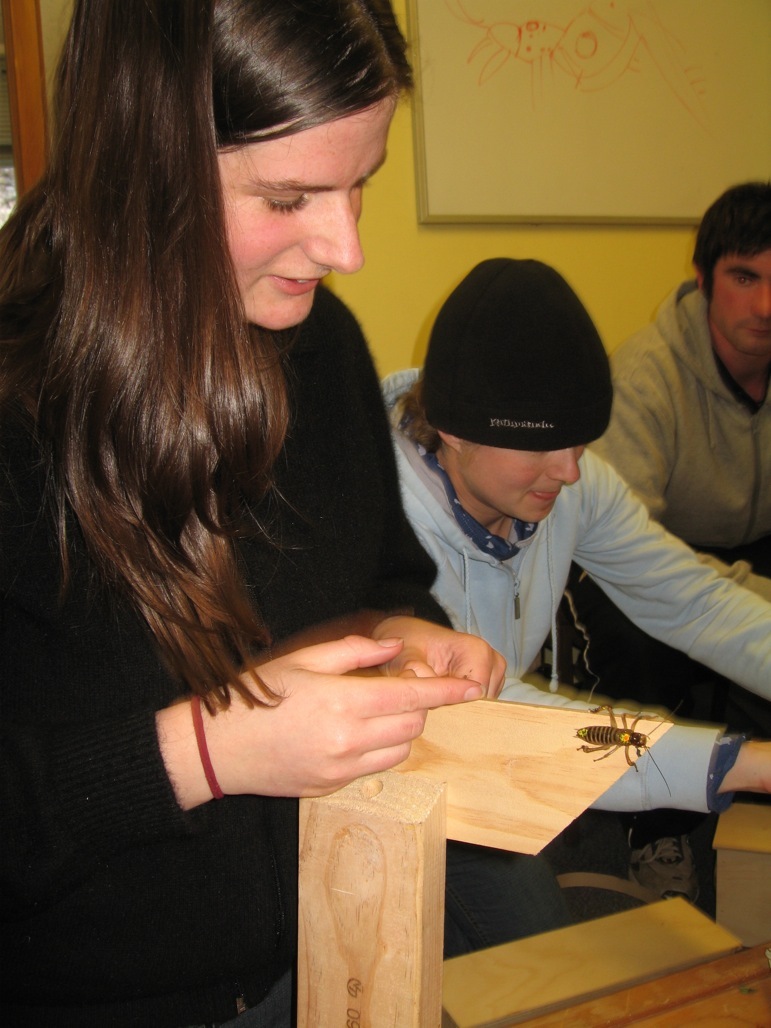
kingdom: Animalia
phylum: Arthropoda
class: Insecta
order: Orthoptera
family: Anostostomatidae
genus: Hemideina
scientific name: Hemideina femorata
